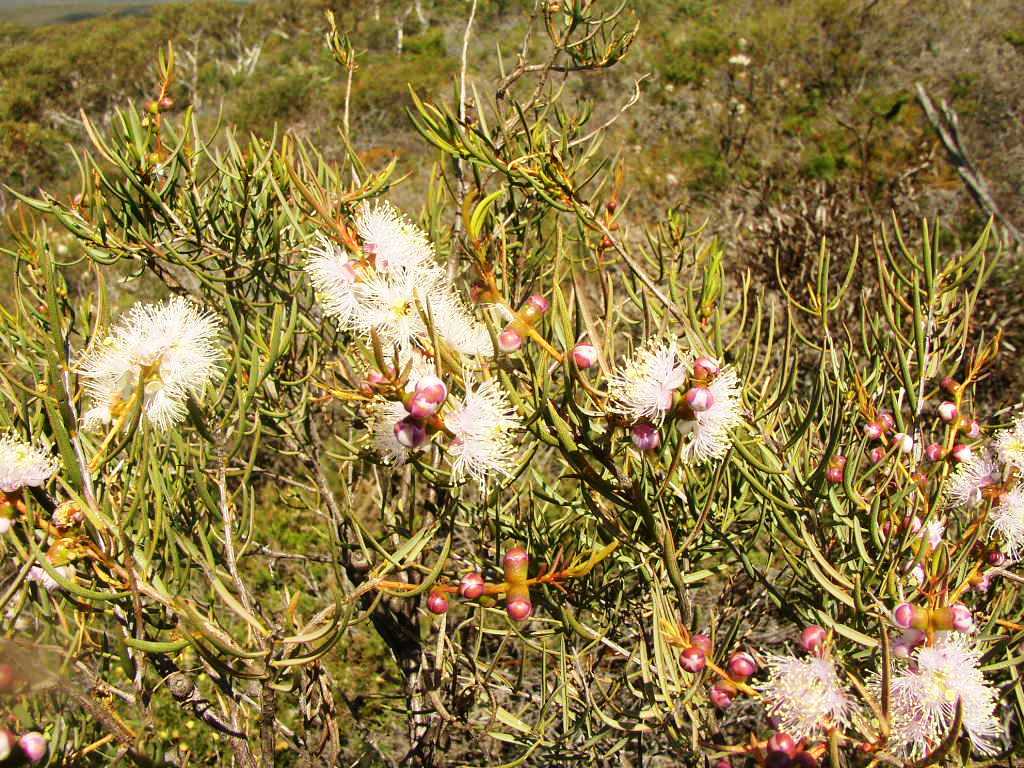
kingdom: Plantae
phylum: Tracheophyta
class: Magnoliopsida
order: Myrtales
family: Myrtaceae
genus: Melaleuca
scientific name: Melaleuca radula
